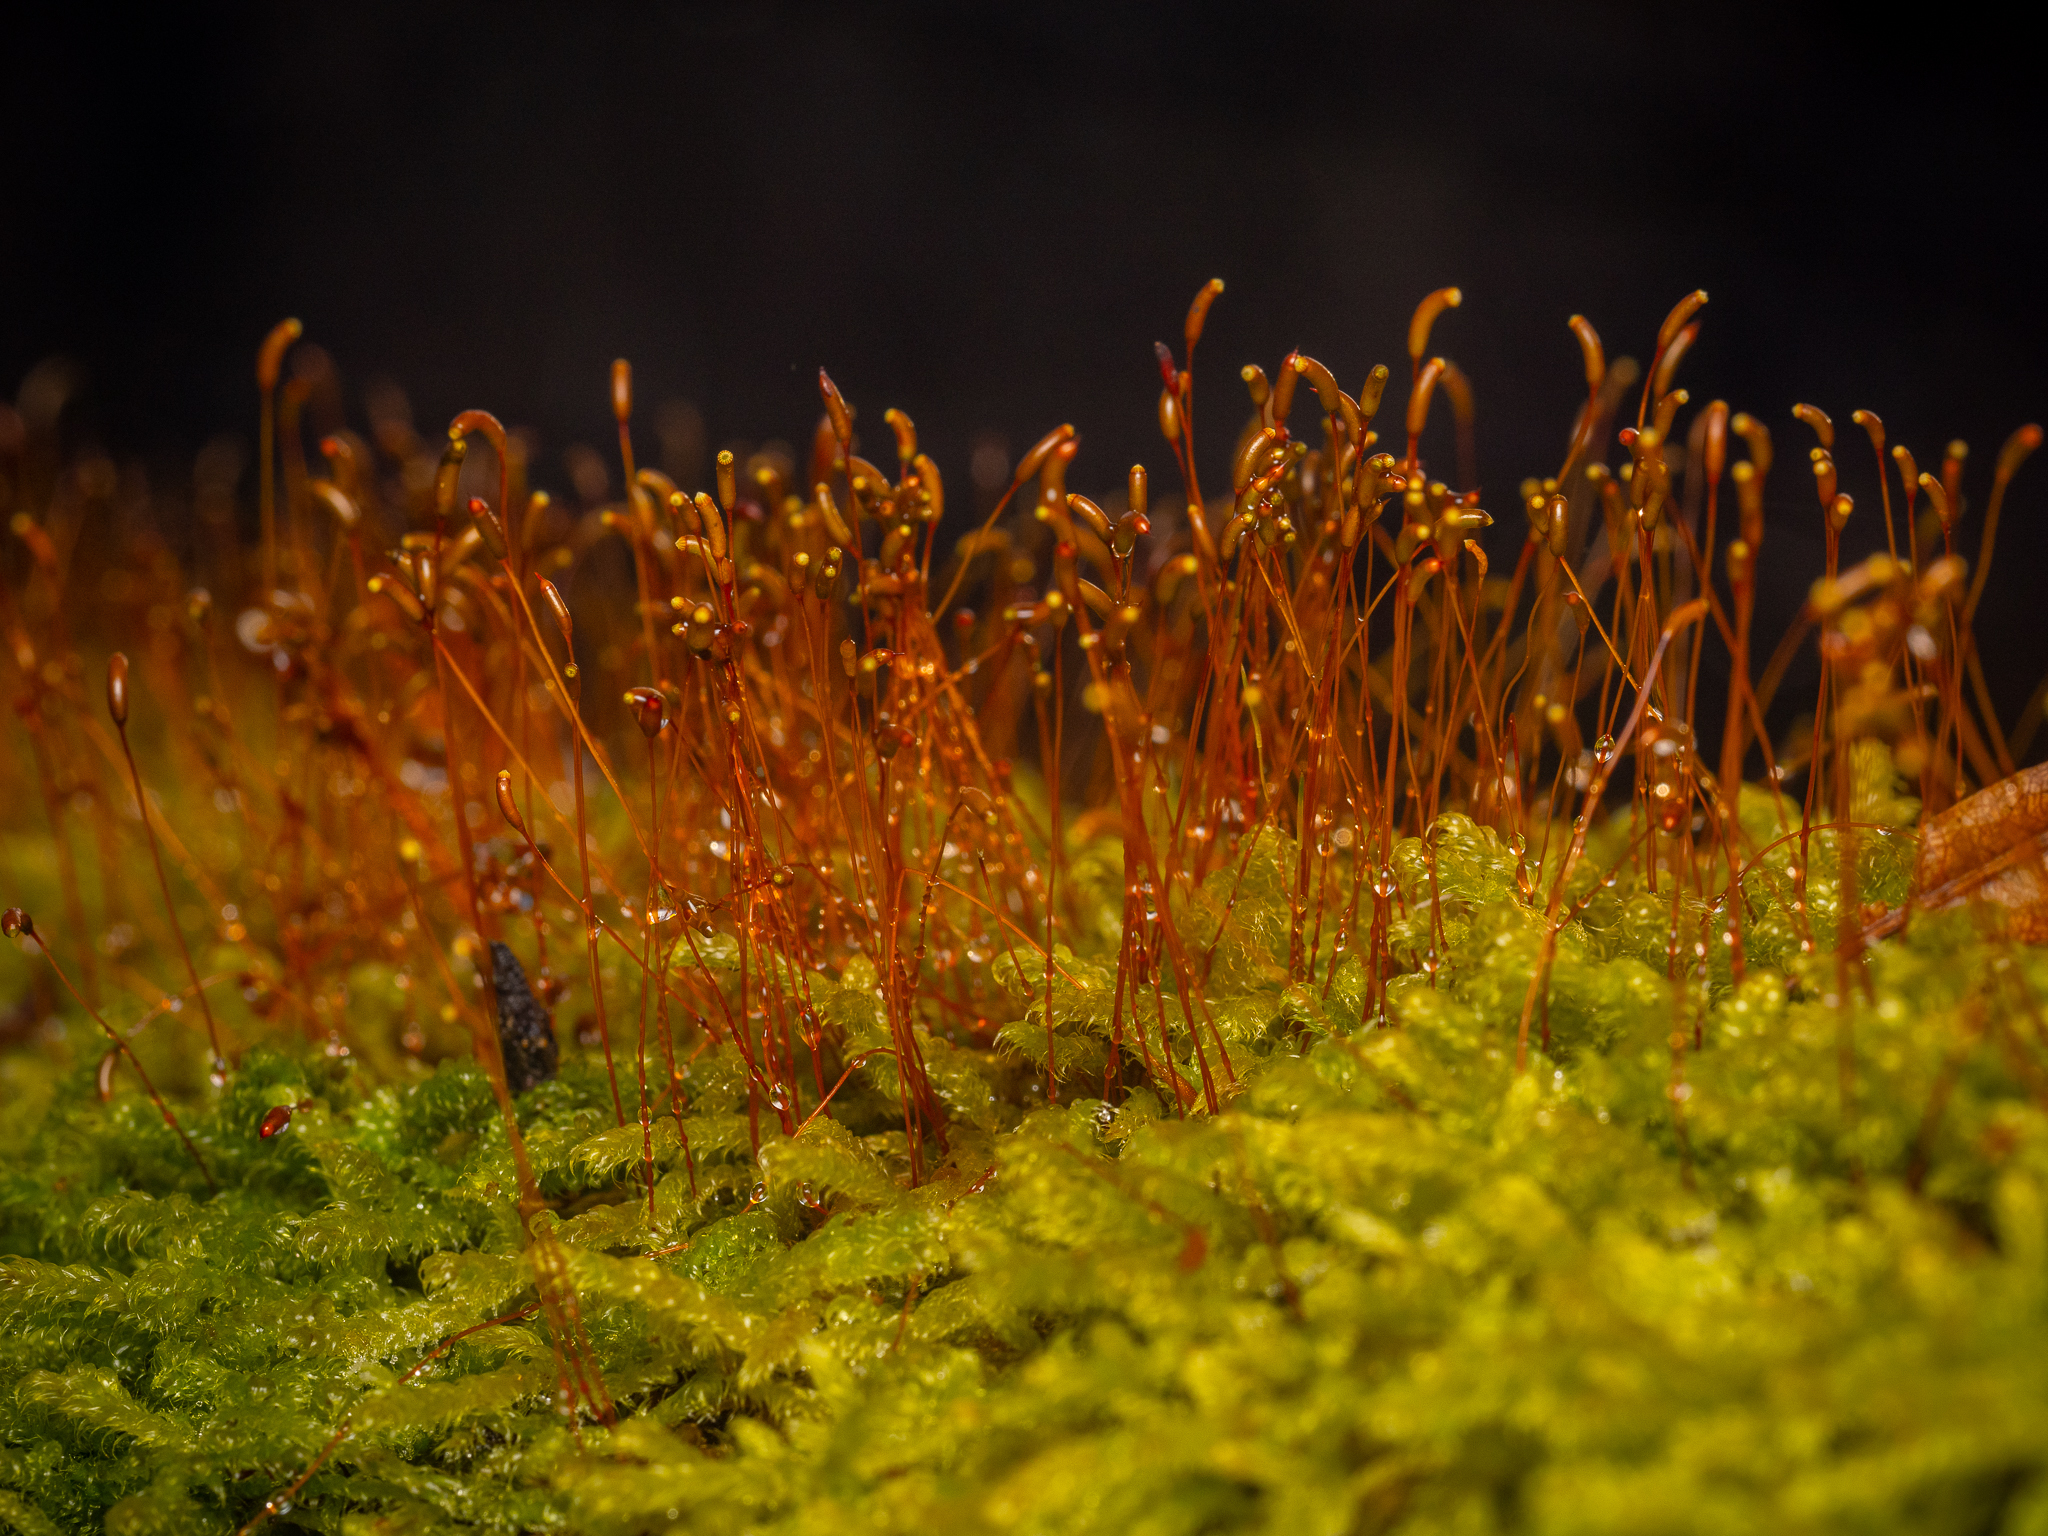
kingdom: Plantae
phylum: Bryophyta
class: Bryopsida
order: Hypnales
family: Hypnaceae
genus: Hypnum
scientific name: Hypnum cupressiforme
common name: Cypress-leaved plait-moss
